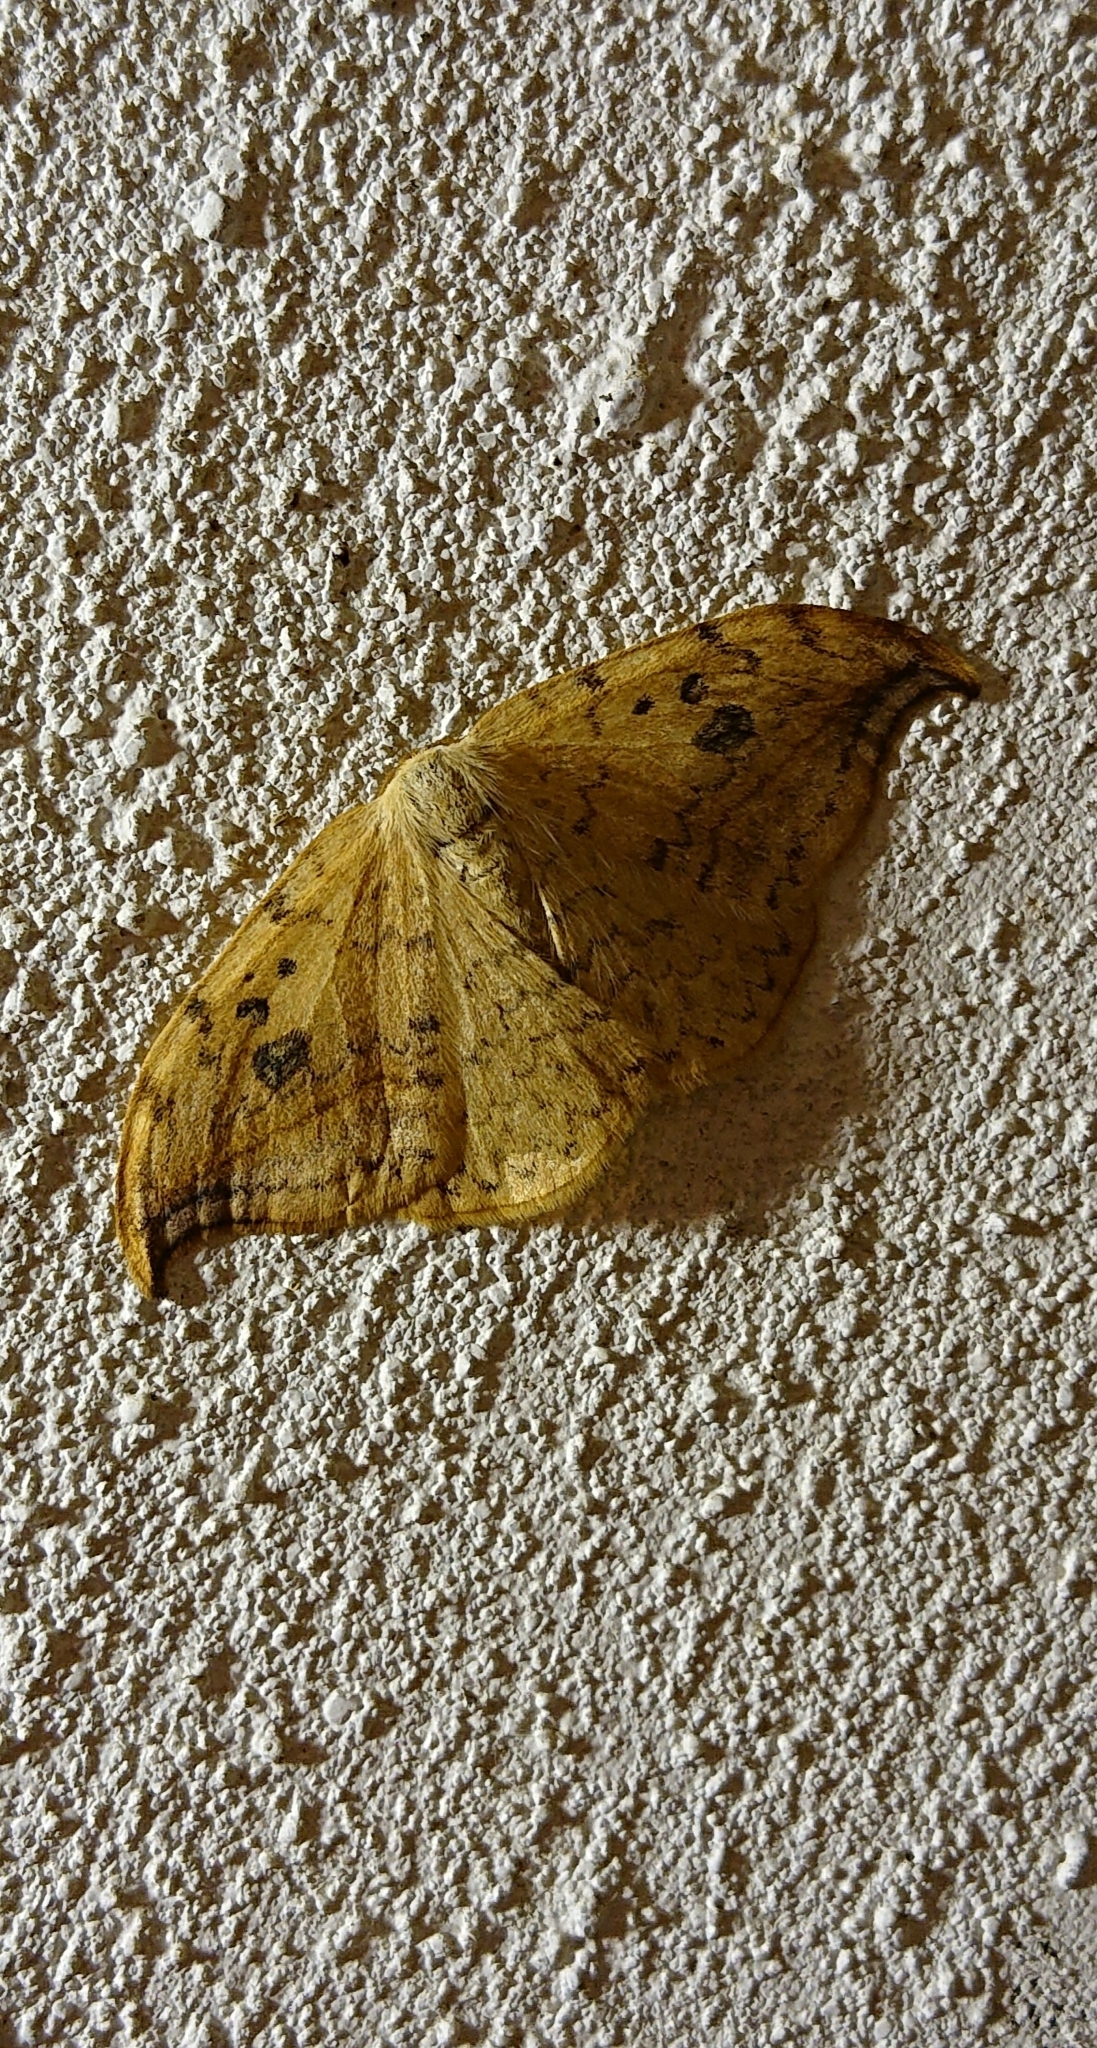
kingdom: Animalia
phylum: Arthropoda
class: Insecta
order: Lepidoptera
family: Drepanidae
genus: Drepana
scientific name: Drepana falcataria
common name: Pebble hook-tip
